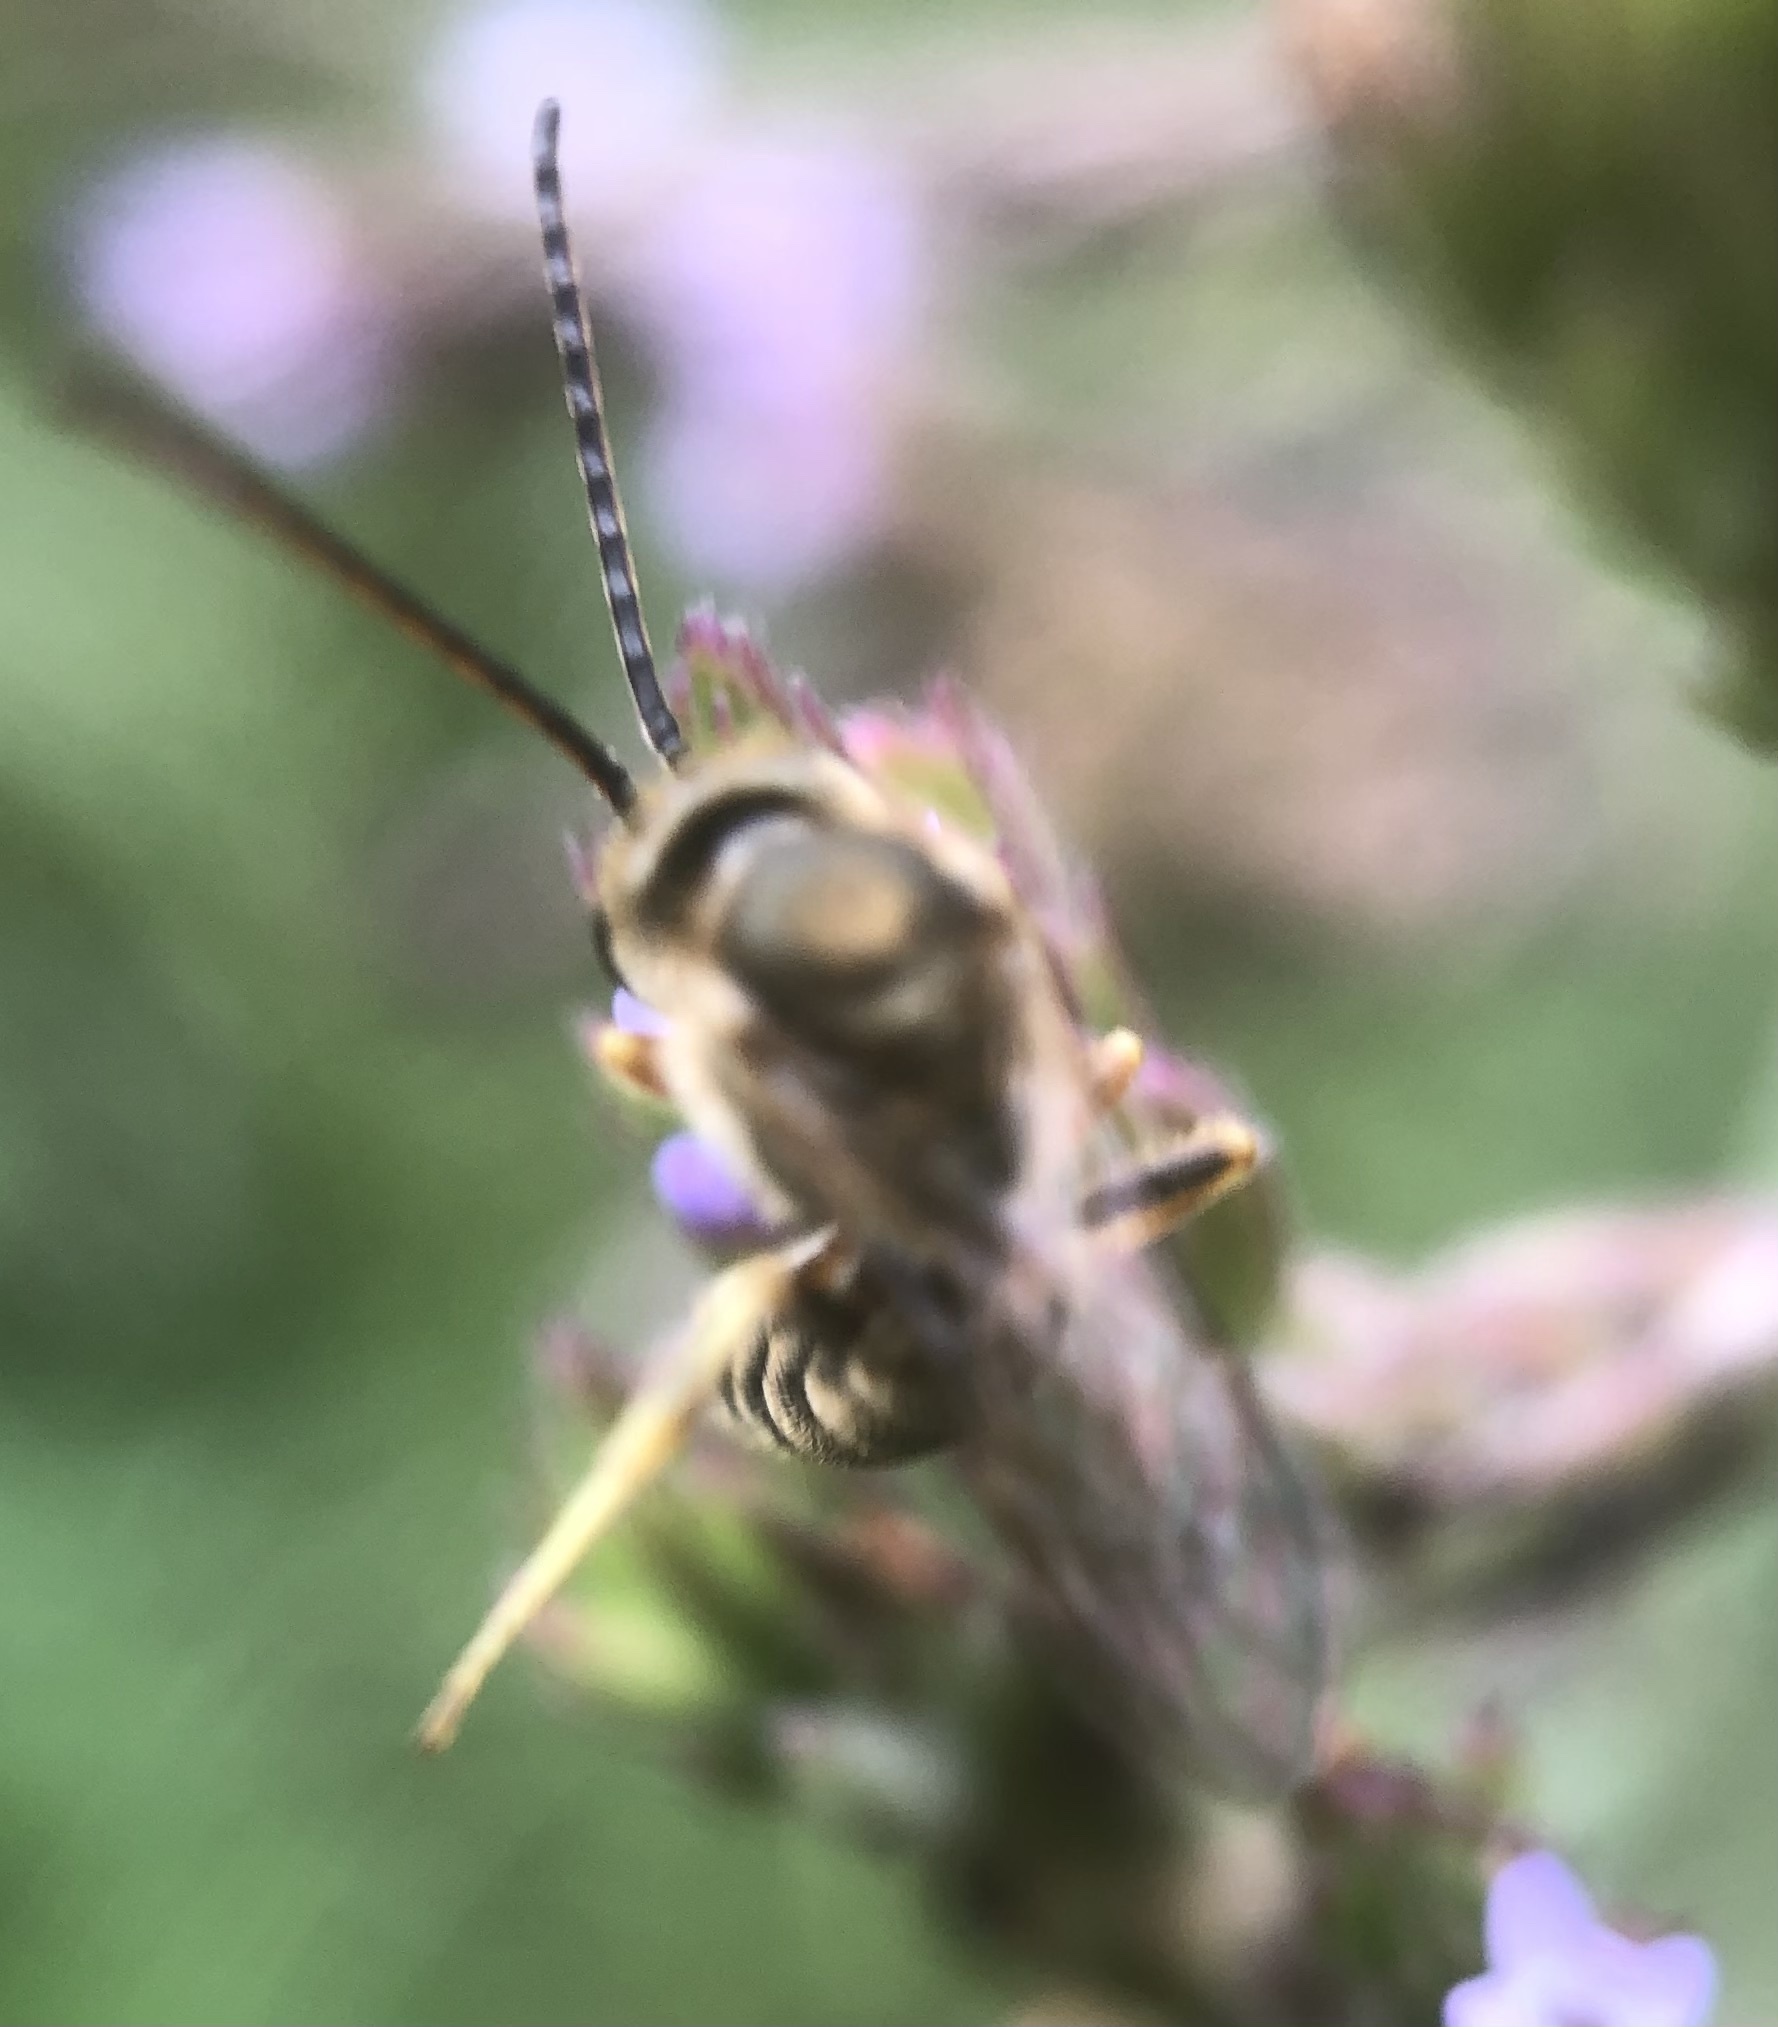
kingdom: Animalia
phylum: Arthropoda
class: Insecta
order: Hymenoptera
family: Halictidae
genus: Halictus
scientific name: Halictus confusus
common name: Southern bronze furrow bee
